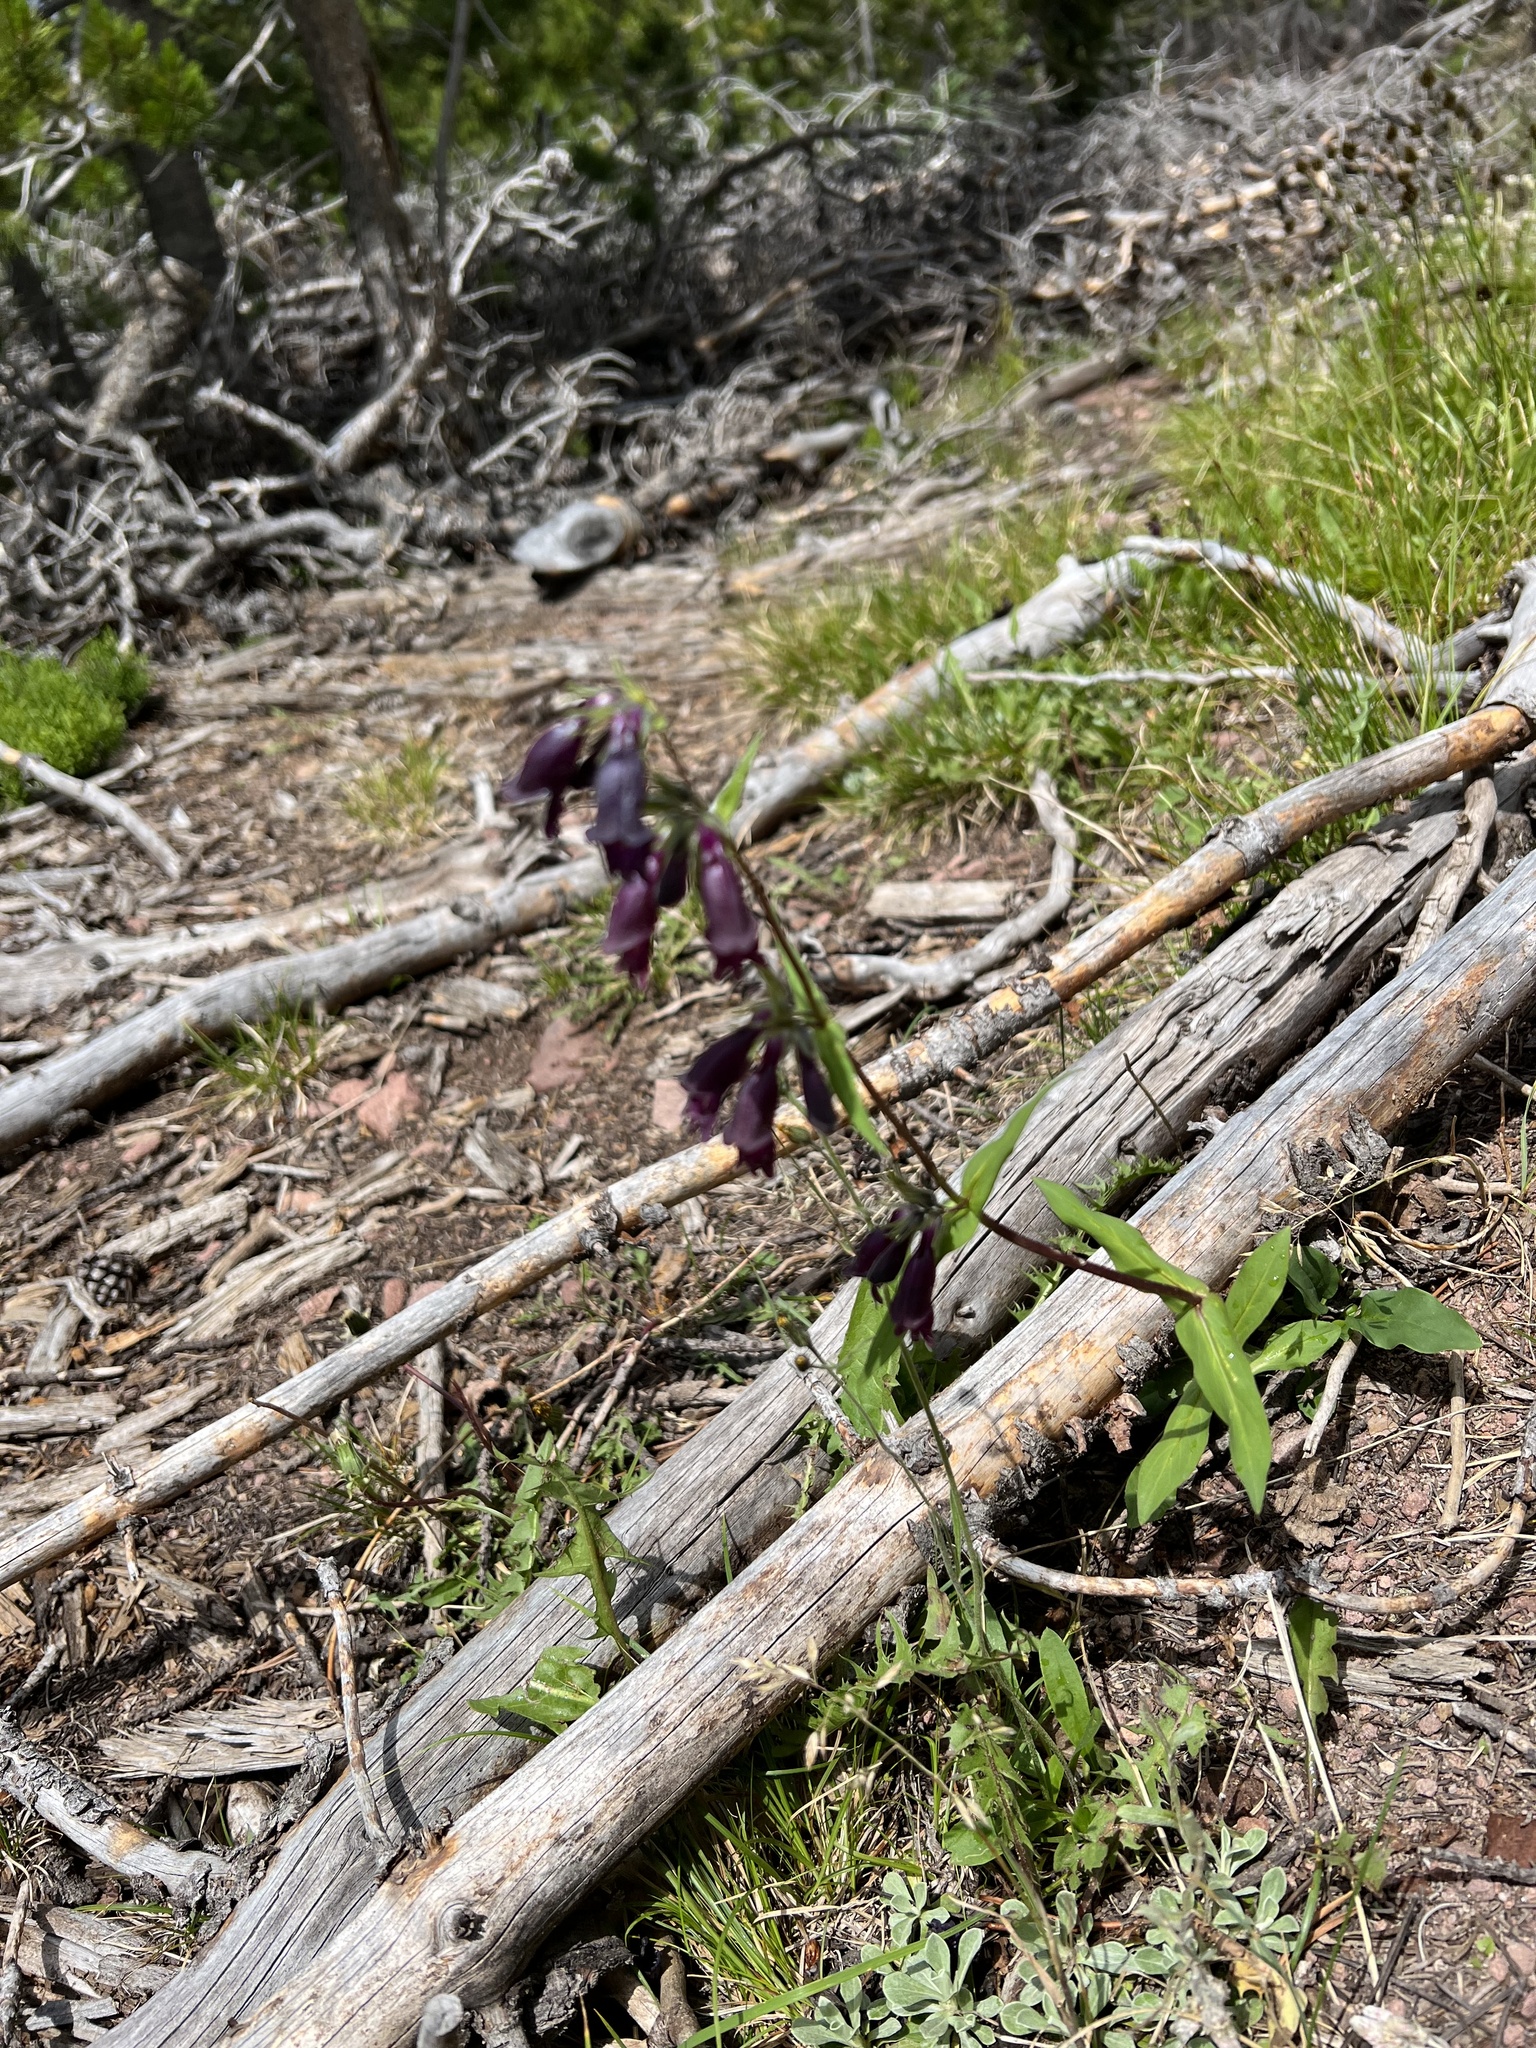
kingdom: Plantae
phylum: Tracheophyta
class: Magnoliopsida
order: Lamiales
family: Plantaginaceae
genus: Penstemon
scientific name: Penstemon whippleanus
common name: Whipple's penstemon
